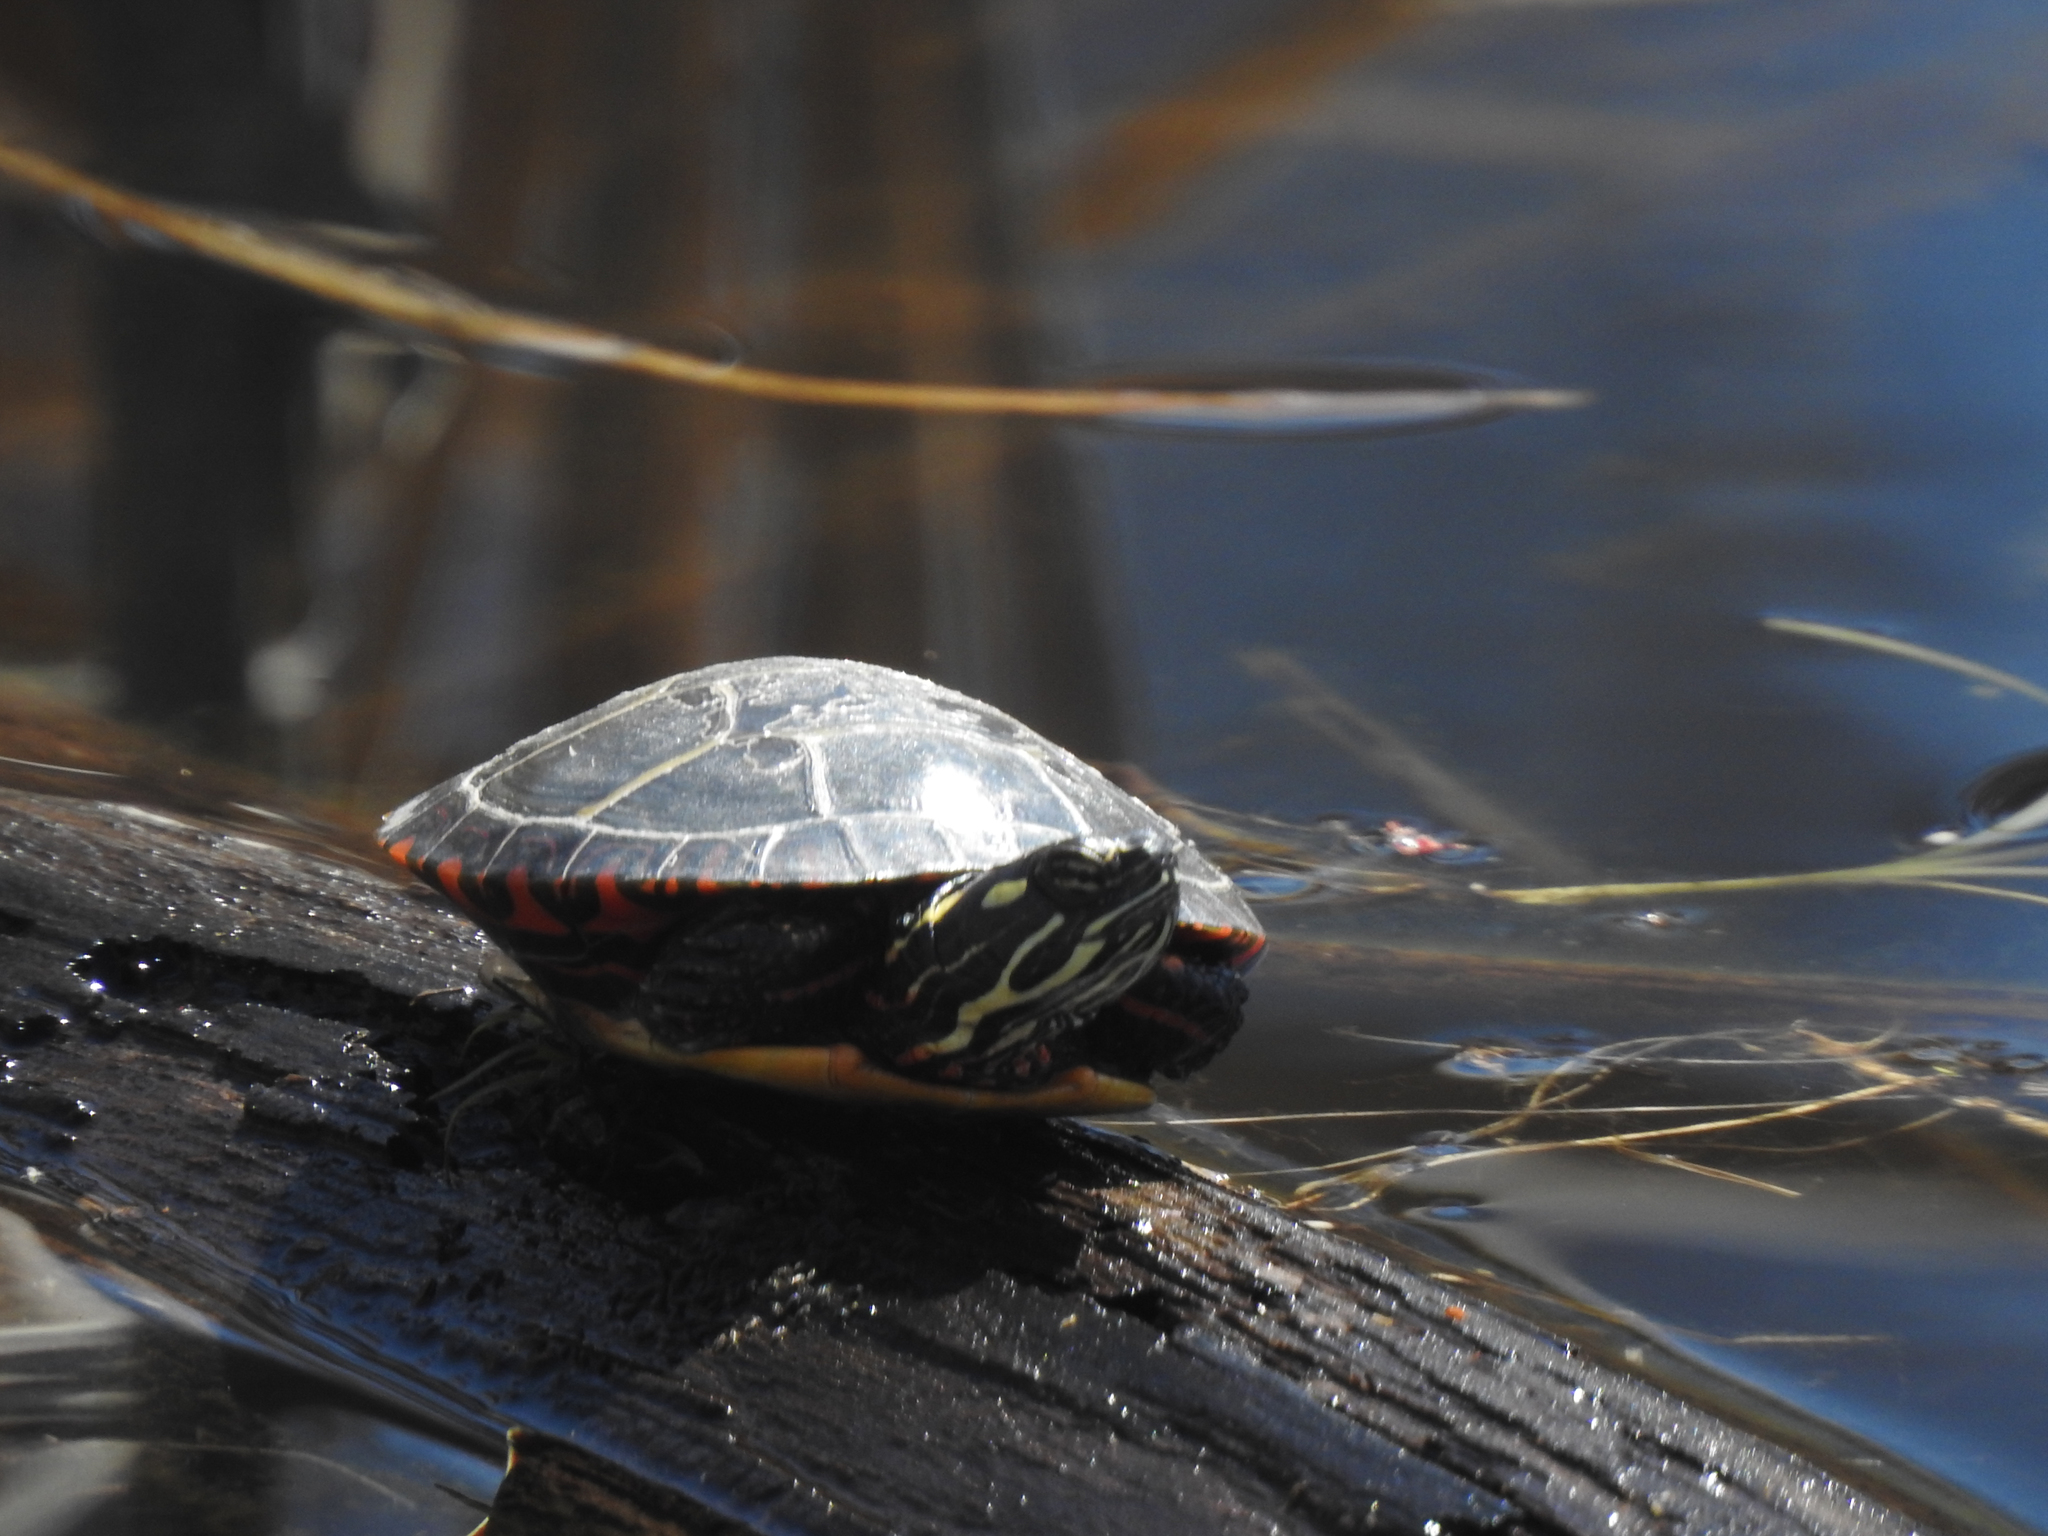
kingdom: Animalia
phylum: Chordata
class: Testudines
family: Emydidae
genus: Chrysemys
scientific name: Chrysemys picta
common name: Painted turtle
